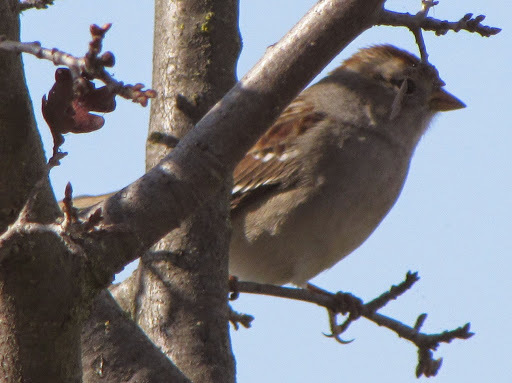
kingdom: Animalia
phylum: Chordata
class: Aves
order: Passeriformes
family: Passerellidae
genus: Zonotrichia
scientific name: Zonotrichia leucophrys
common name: White-crowned sparrow
